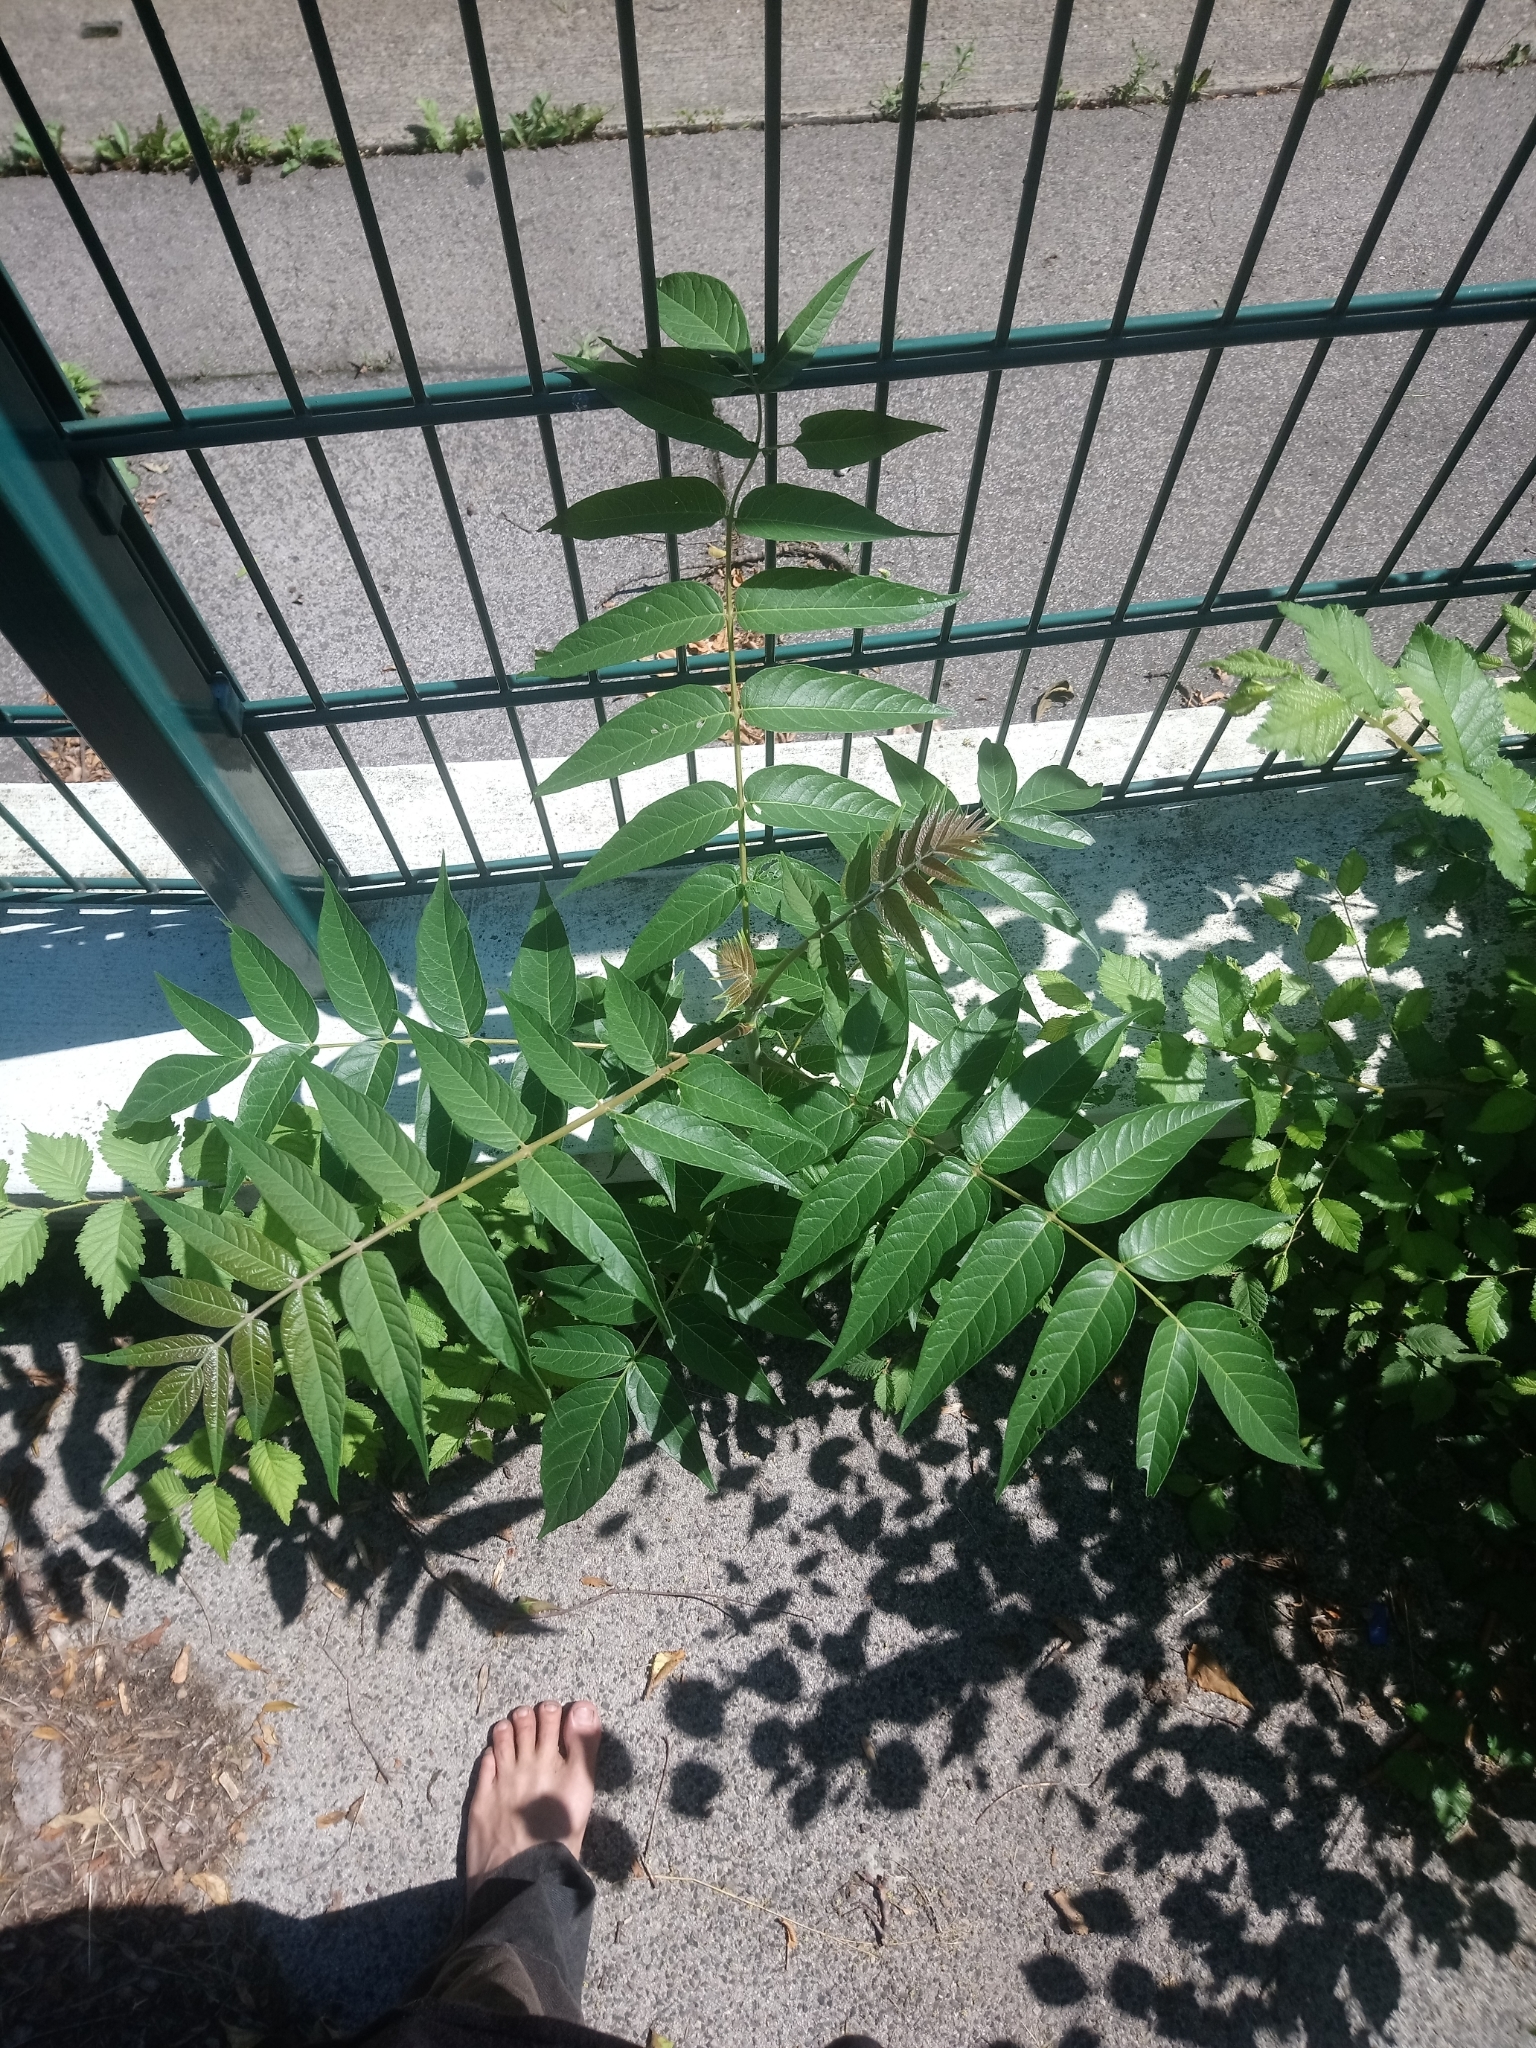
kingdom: Plantae
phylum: Tracheophyta
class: Magnoliopsida
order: Sapindales
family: Simaroubaceae
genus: Ailanthus
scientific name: Ailanthus altissima
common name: Tree-of-heaven
